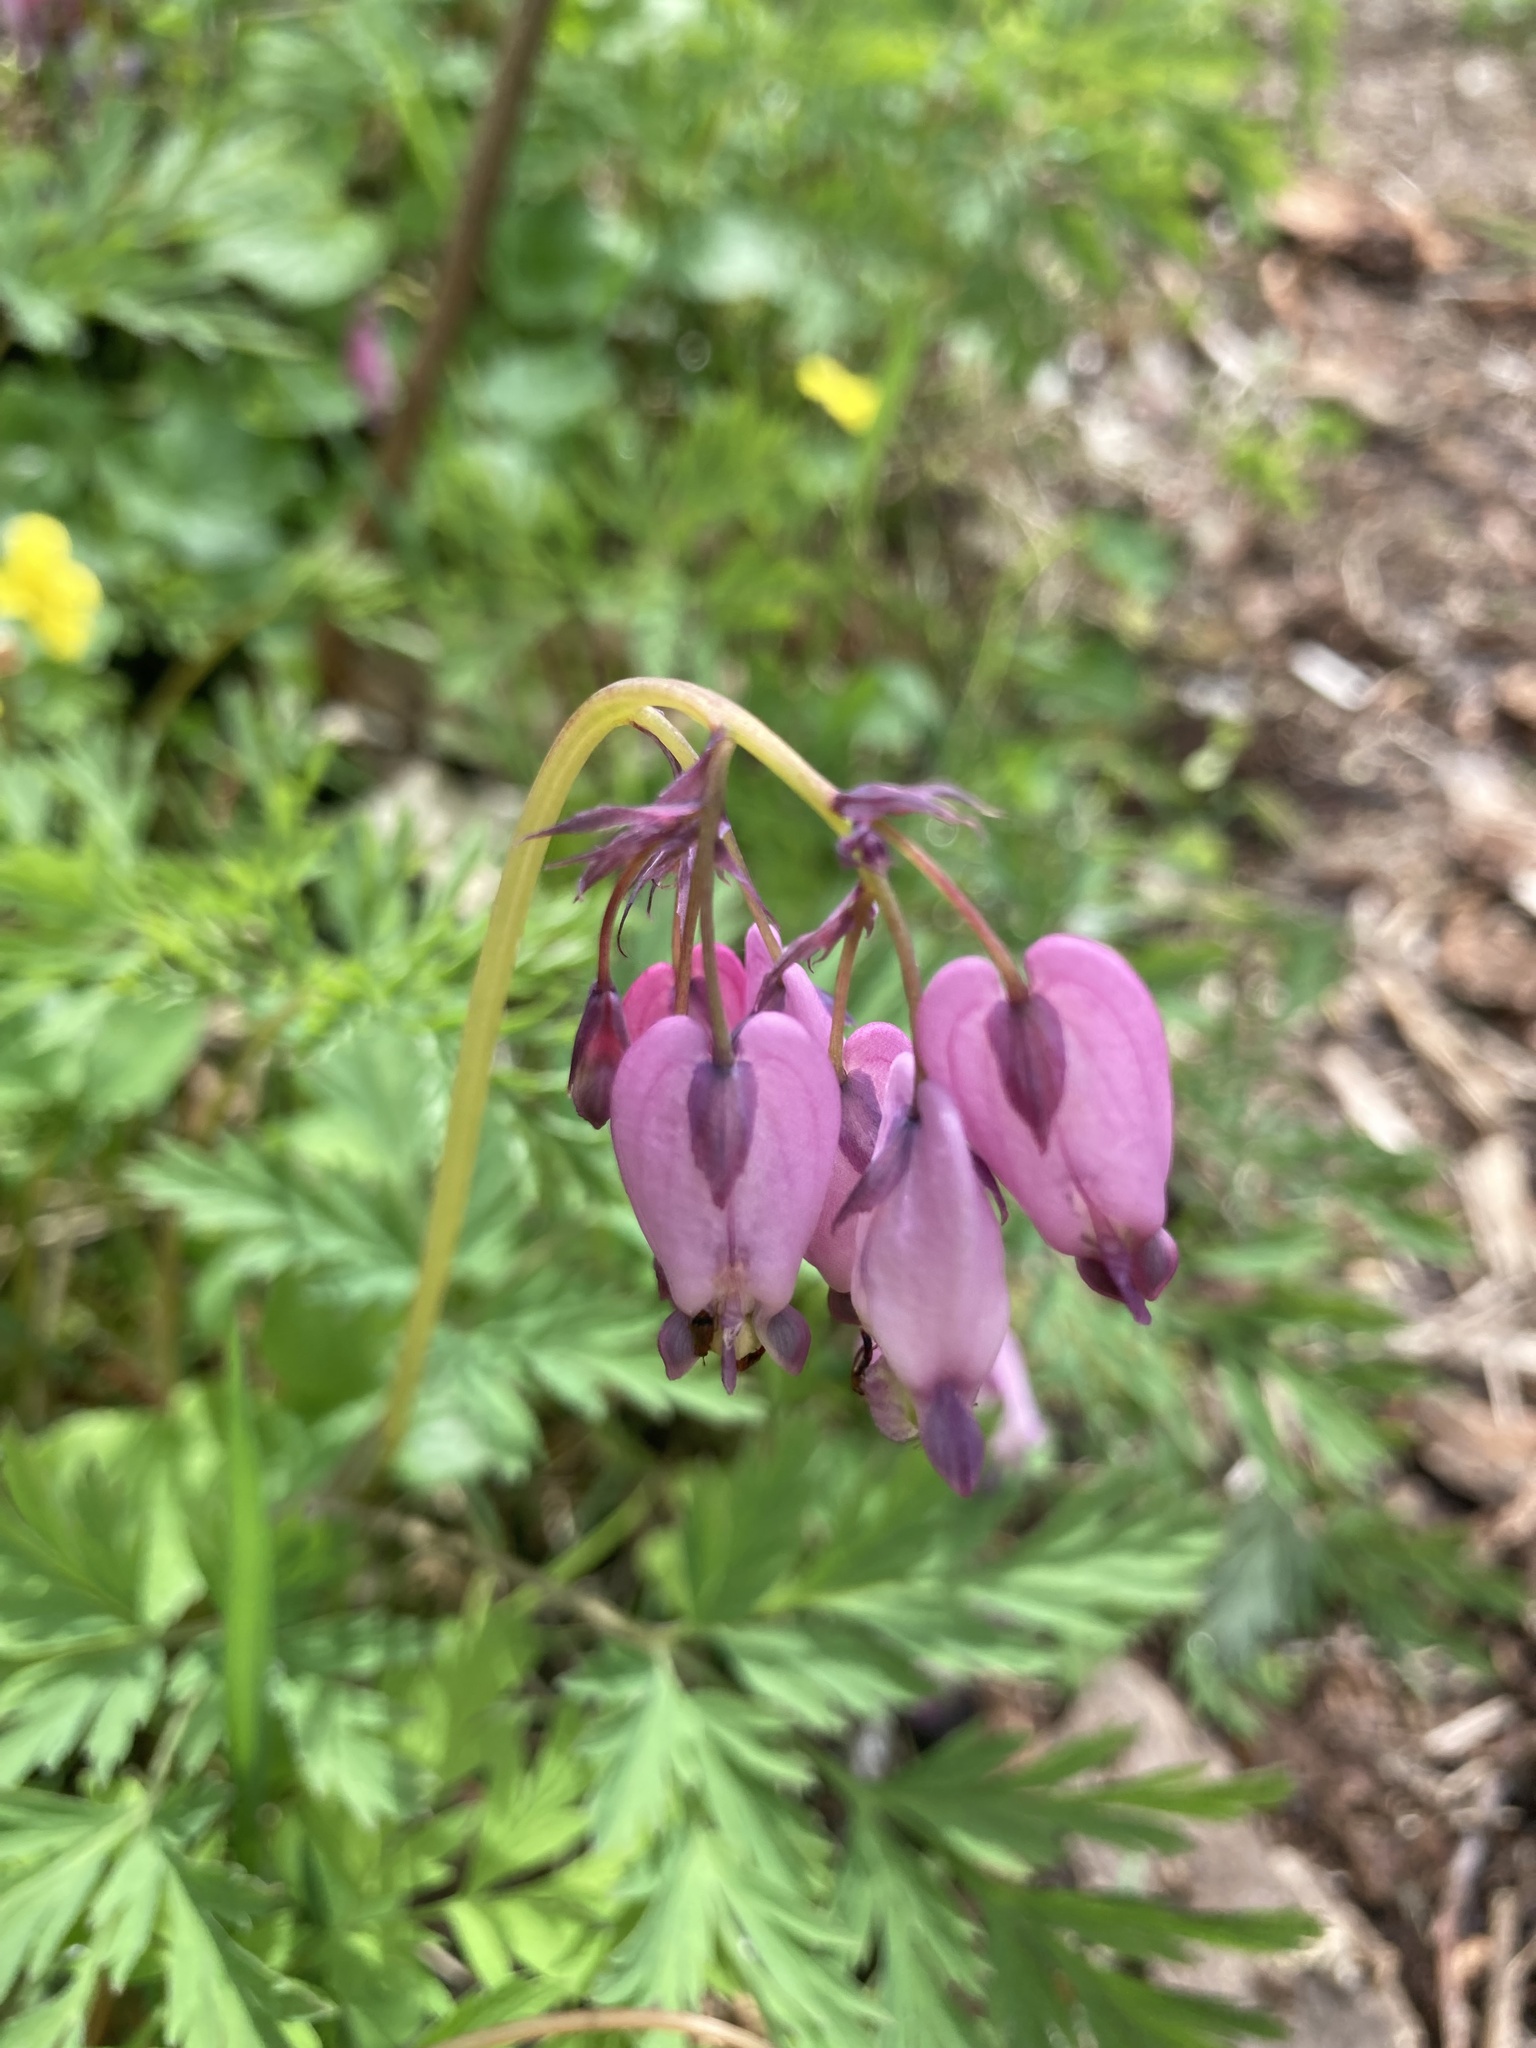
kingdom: Plantae
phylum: Tracheophyta
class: Magnoliopsida
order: Ranunculales
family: Papaveraceae
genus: Dicentra
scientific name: Dicentra formosa
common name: Bleeding-heart
